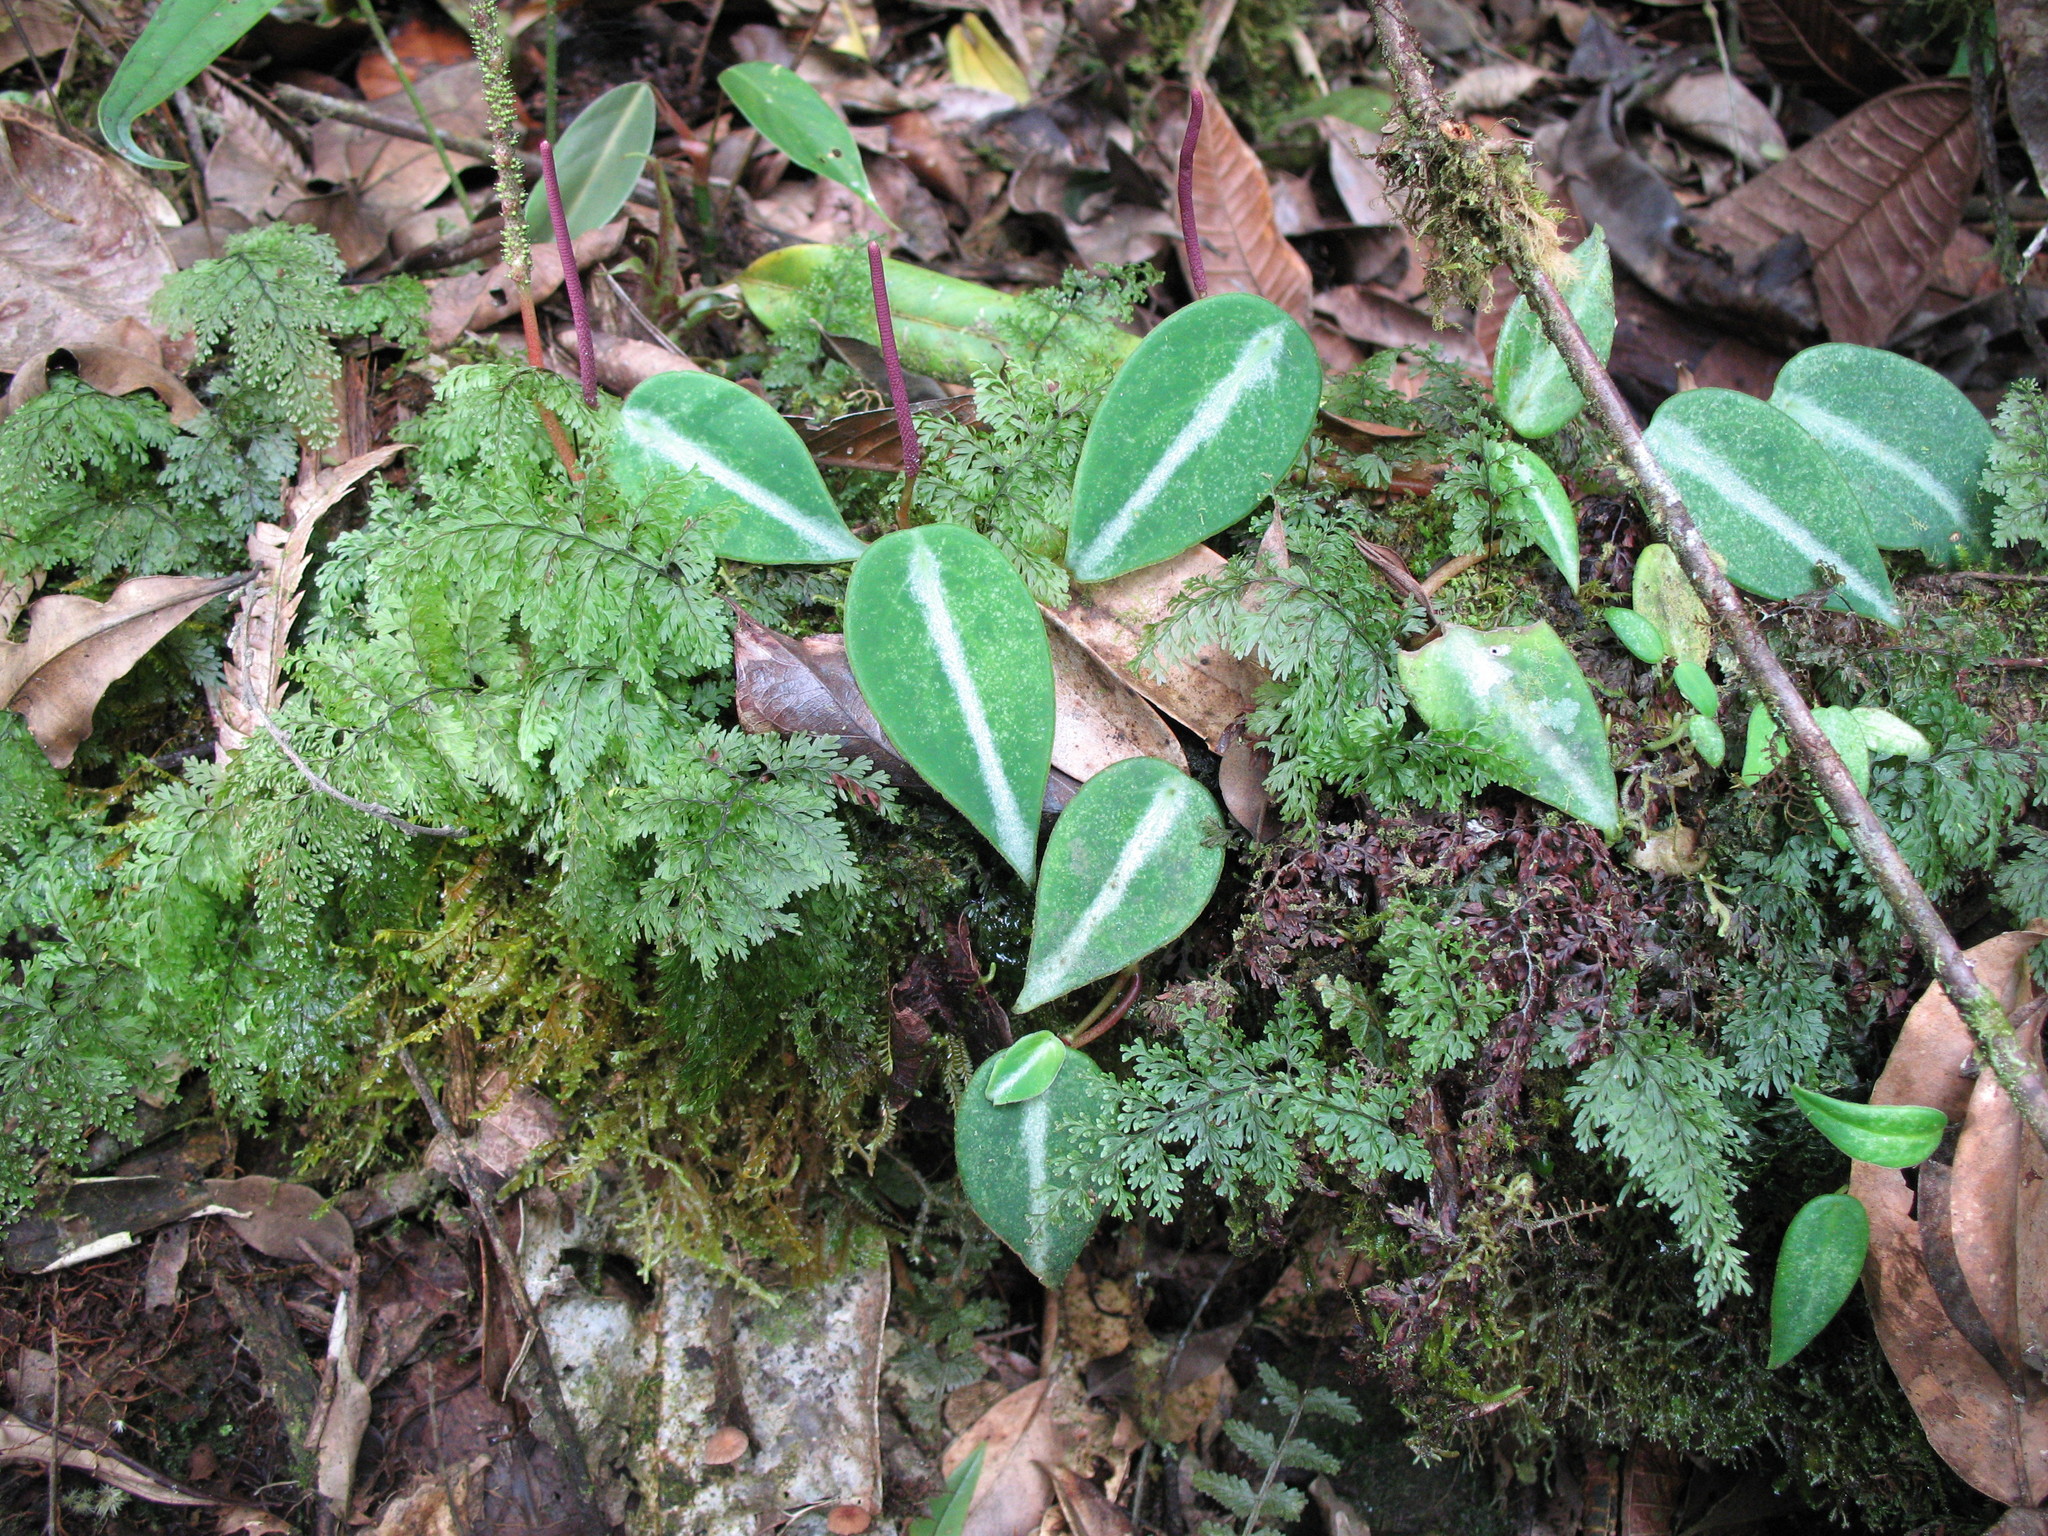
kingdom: Plantae
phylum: Tracheophyta
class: Magnoliopsida
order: Piperales
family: Piperaceae
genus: Peperomia
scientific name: Peperomia eburnea
